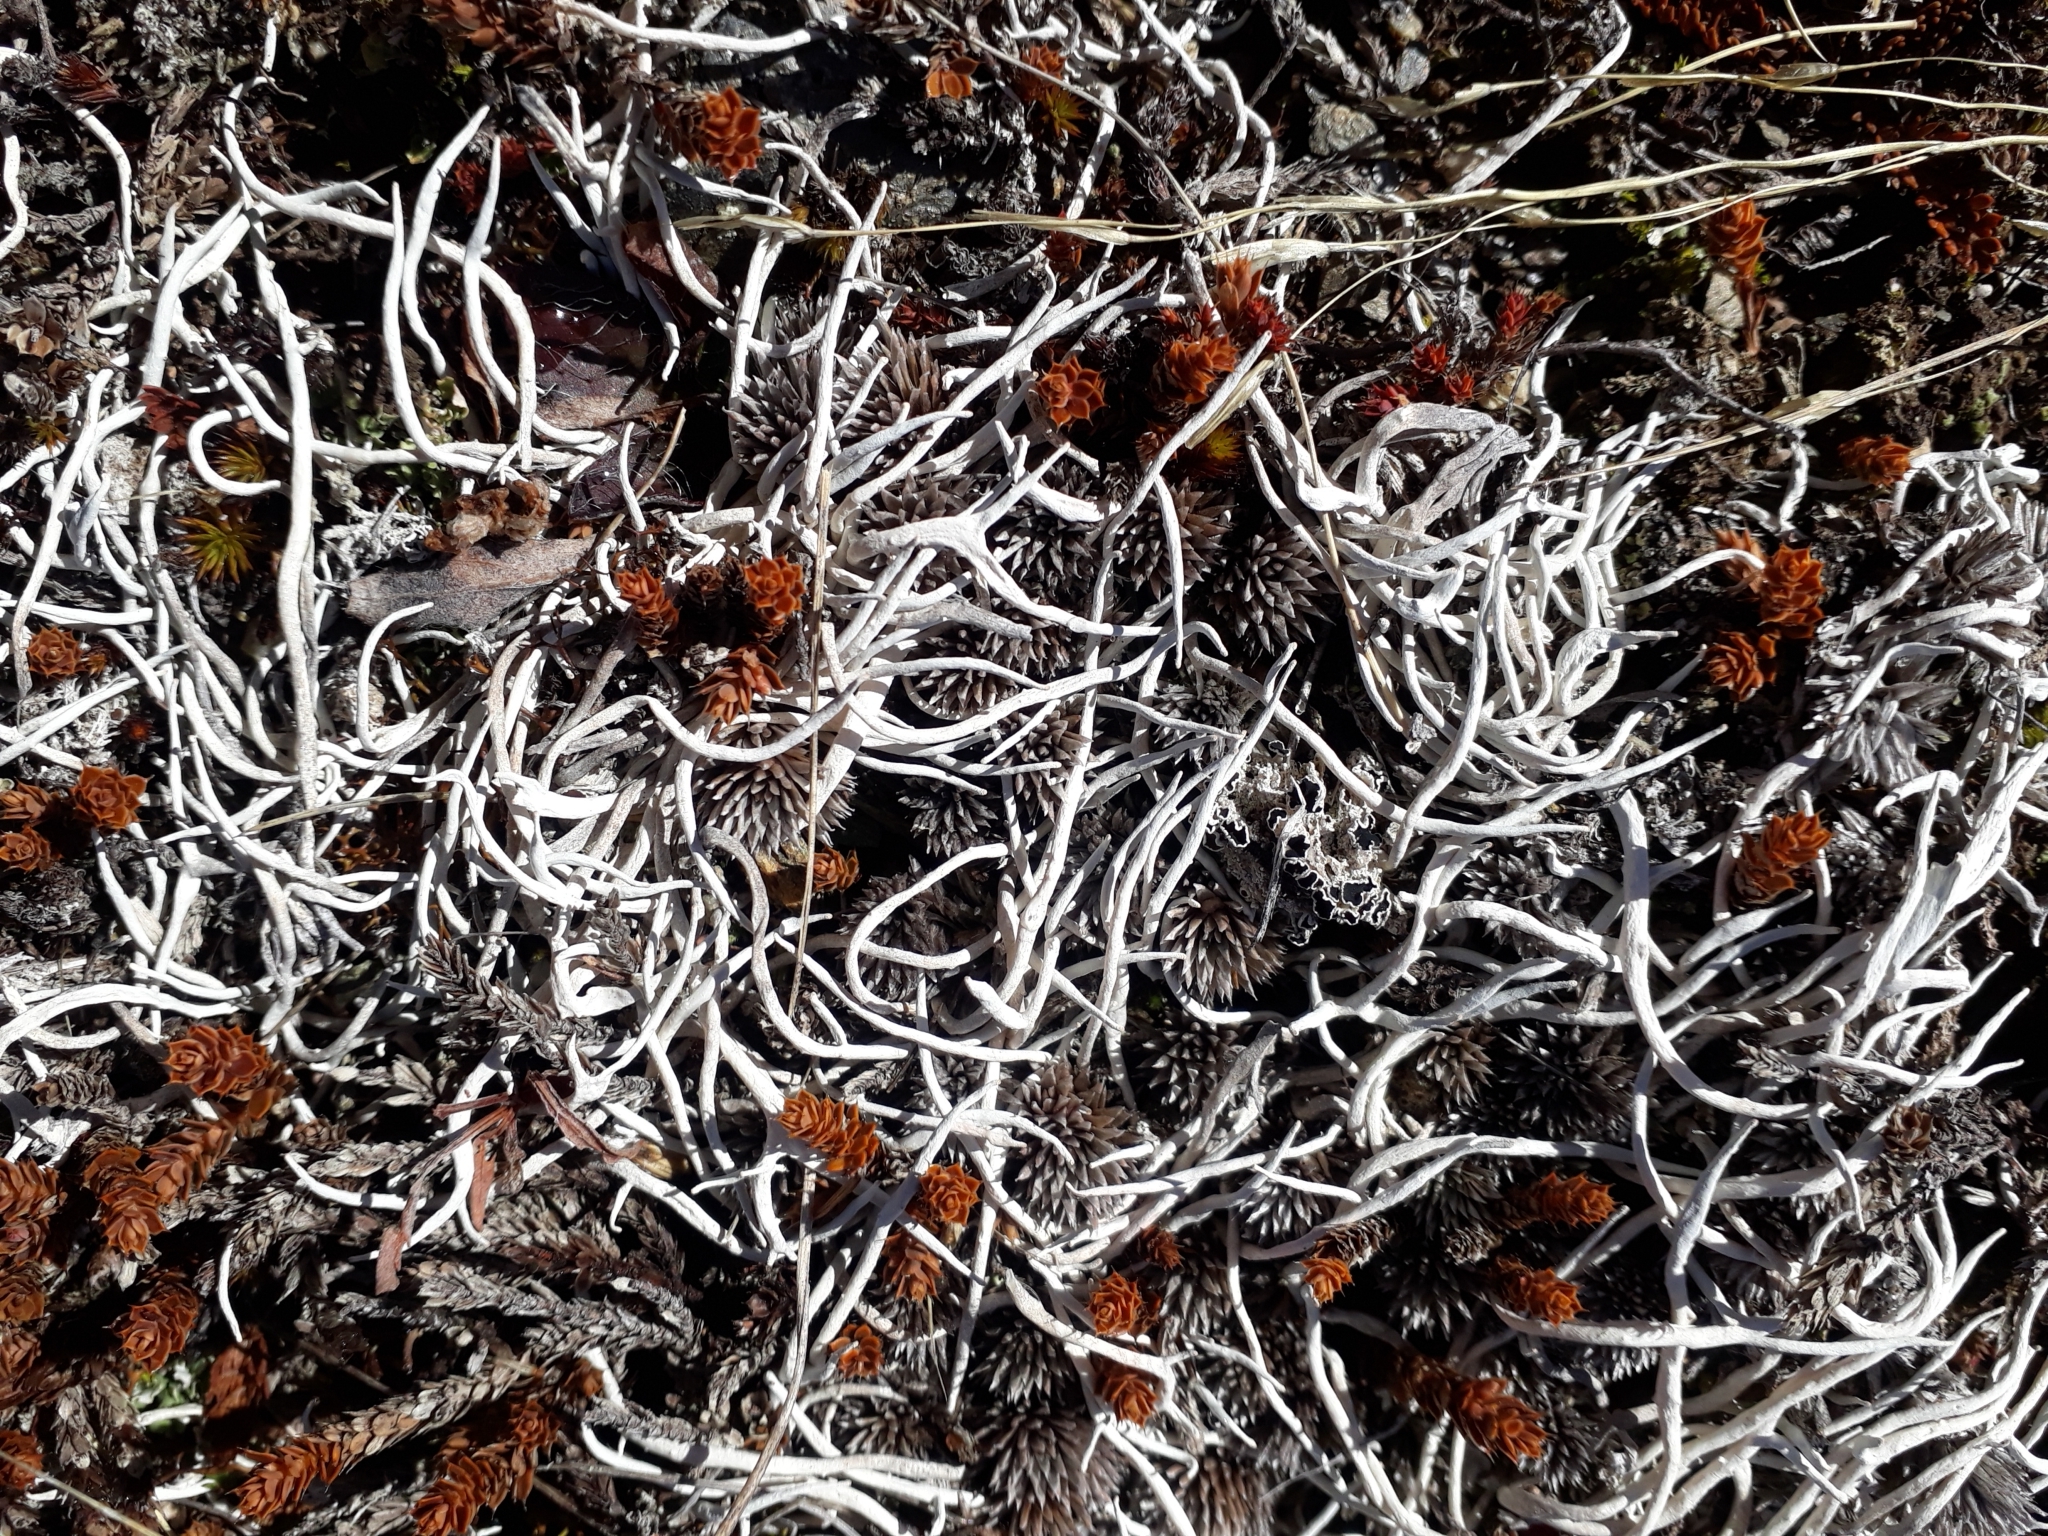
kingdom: Fungi
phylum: Ascomycota
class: Lecanoromycetes
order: Pertusariales
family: Icmadophilaceae
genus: Thamnolia
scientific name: Thamnolia vermicularis
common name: Whiteworm lichen
